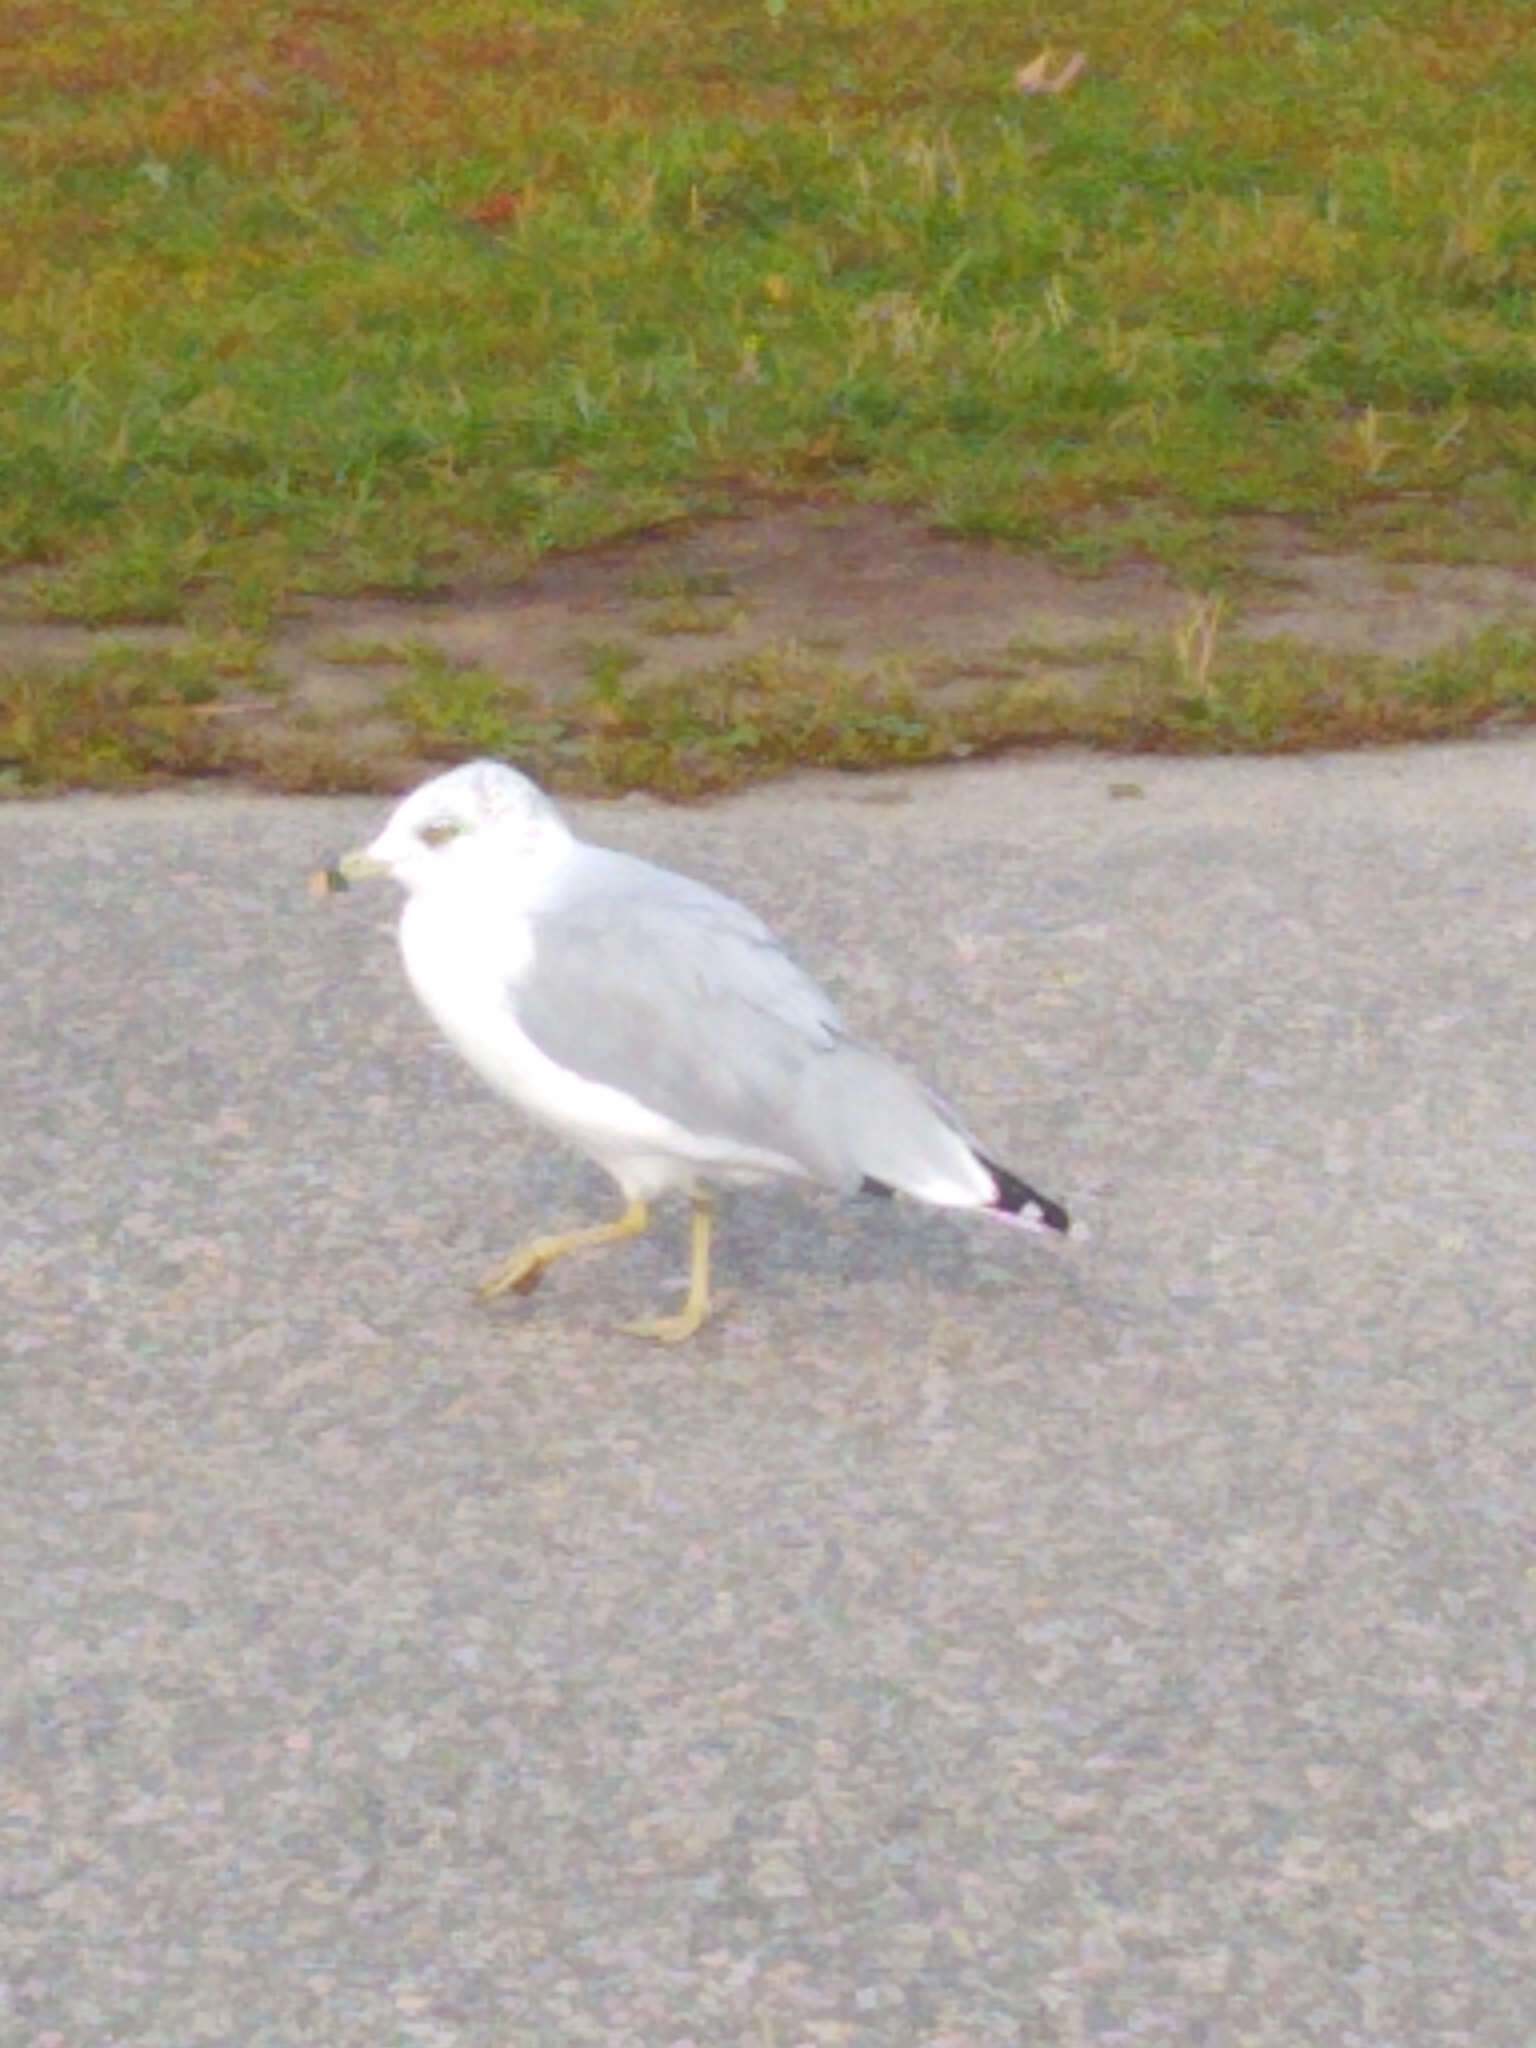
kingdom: Animalia
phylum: Chordata
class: Aves
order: Charadriiformes
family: Laridae
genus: Larus
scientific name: Larus delawarensis
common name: Ring-billed gull
